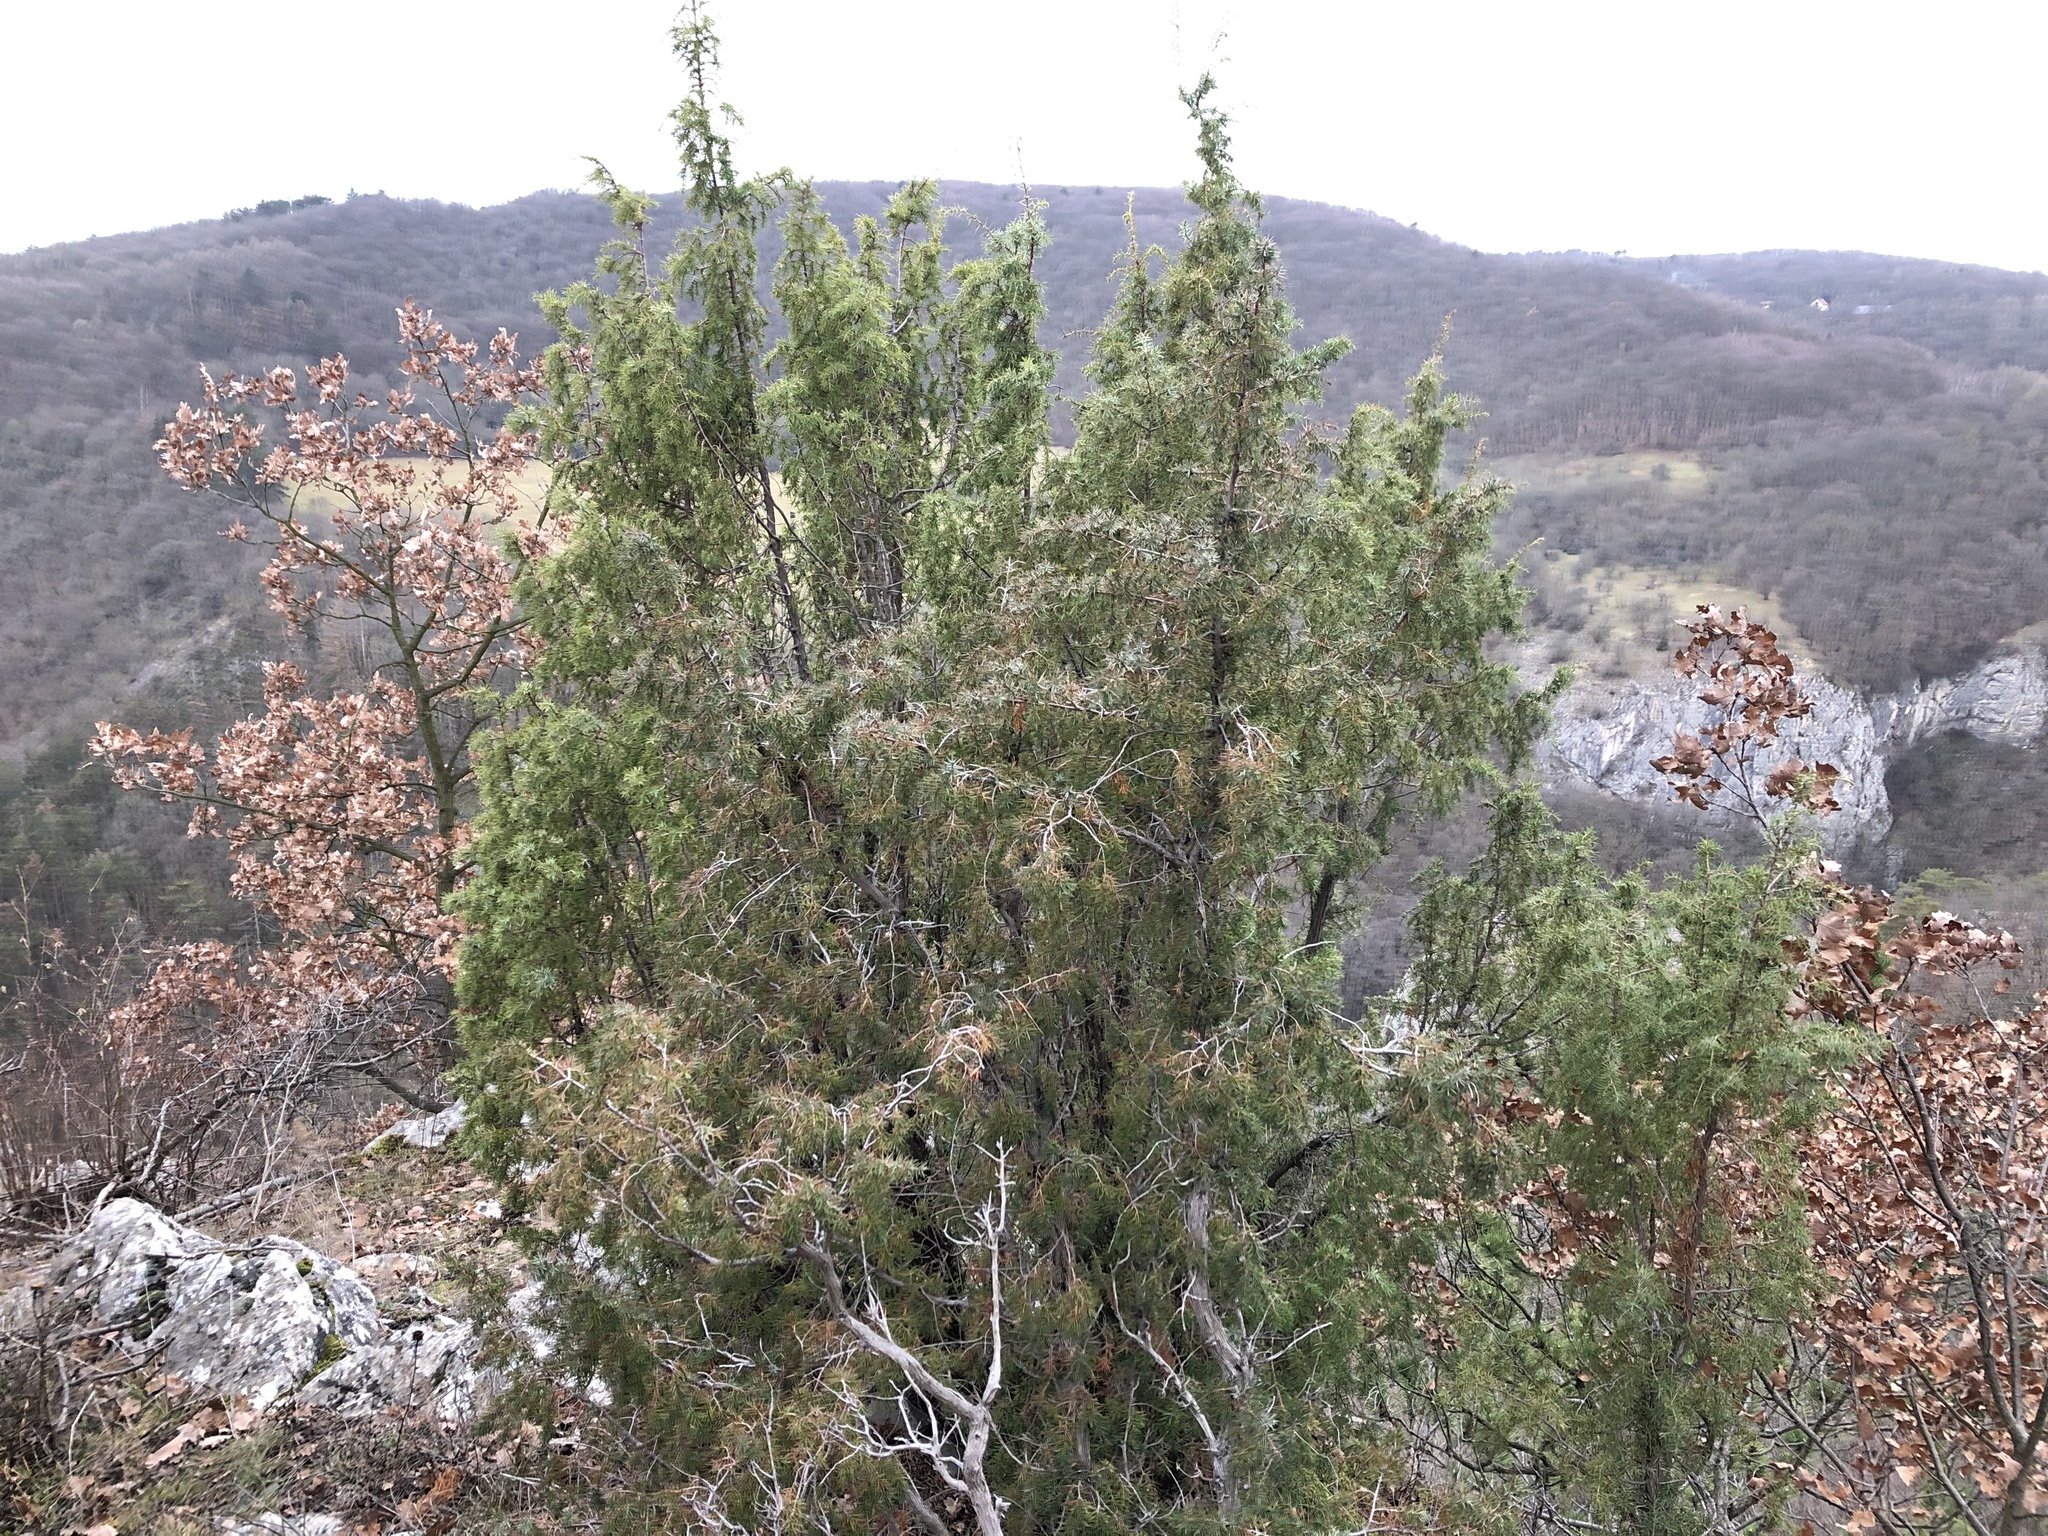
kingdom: Plantae
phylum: Tracheophyta
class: Pinopsida
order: Pinales
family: Cupressaceae
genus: Juniperus
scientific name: Juniperus communis
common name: Common juniper
